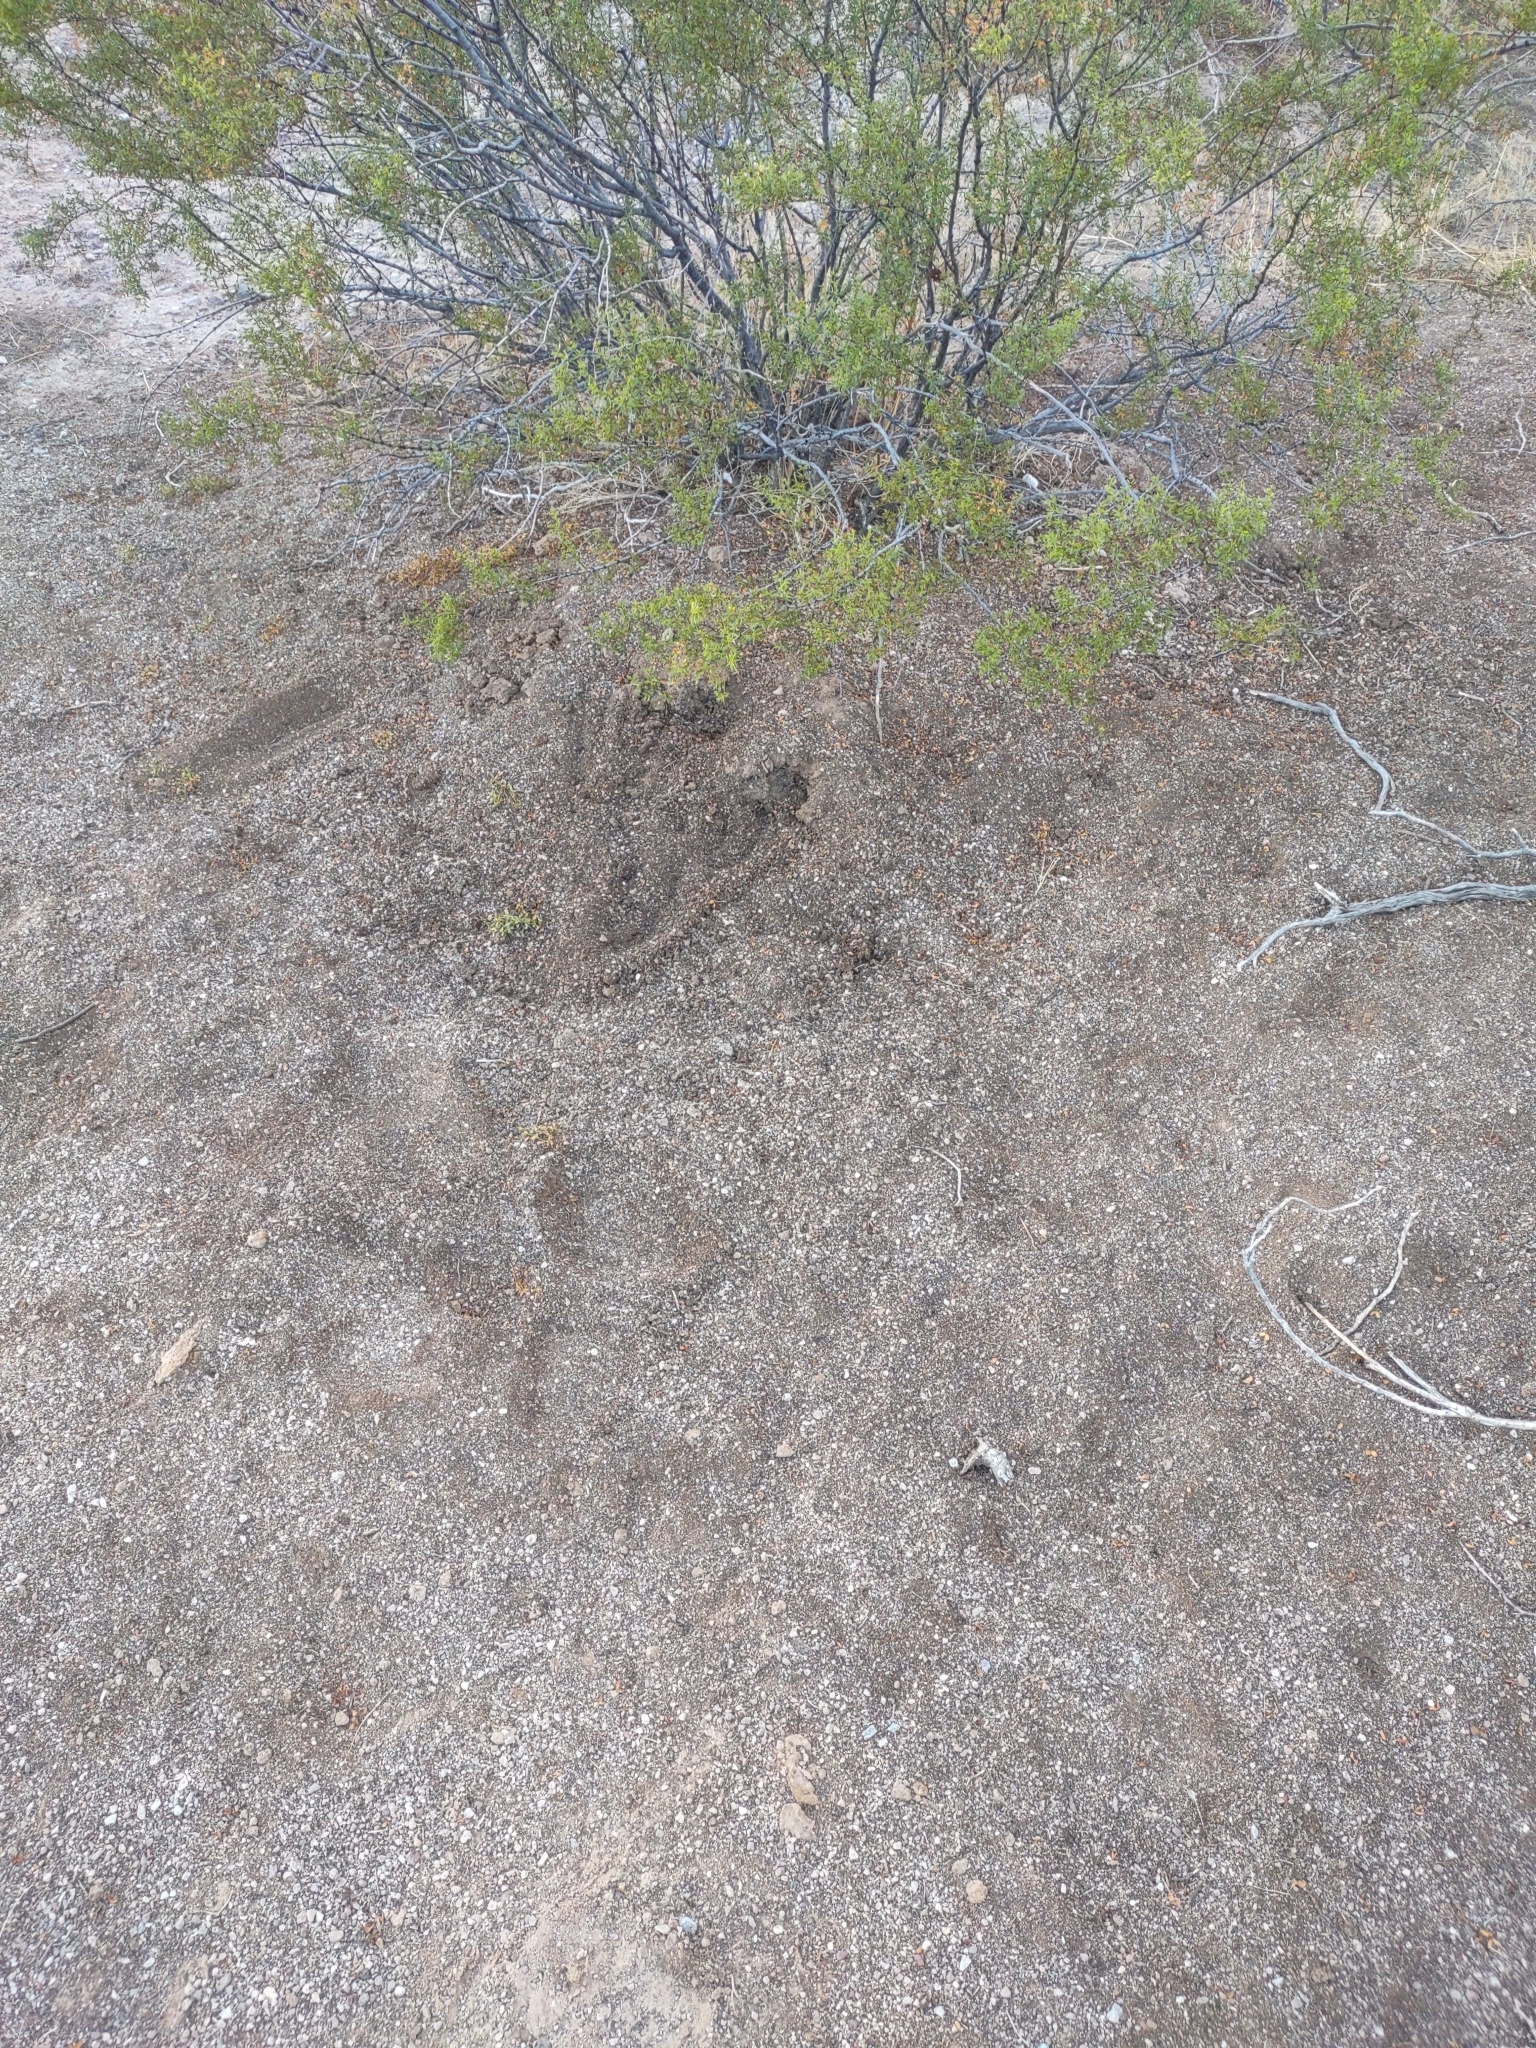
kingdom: Animalia
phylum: Arthropoda
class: Insecta
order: Hymenoptera
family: Formicidae
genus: Atta
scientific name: Atta mexicana
